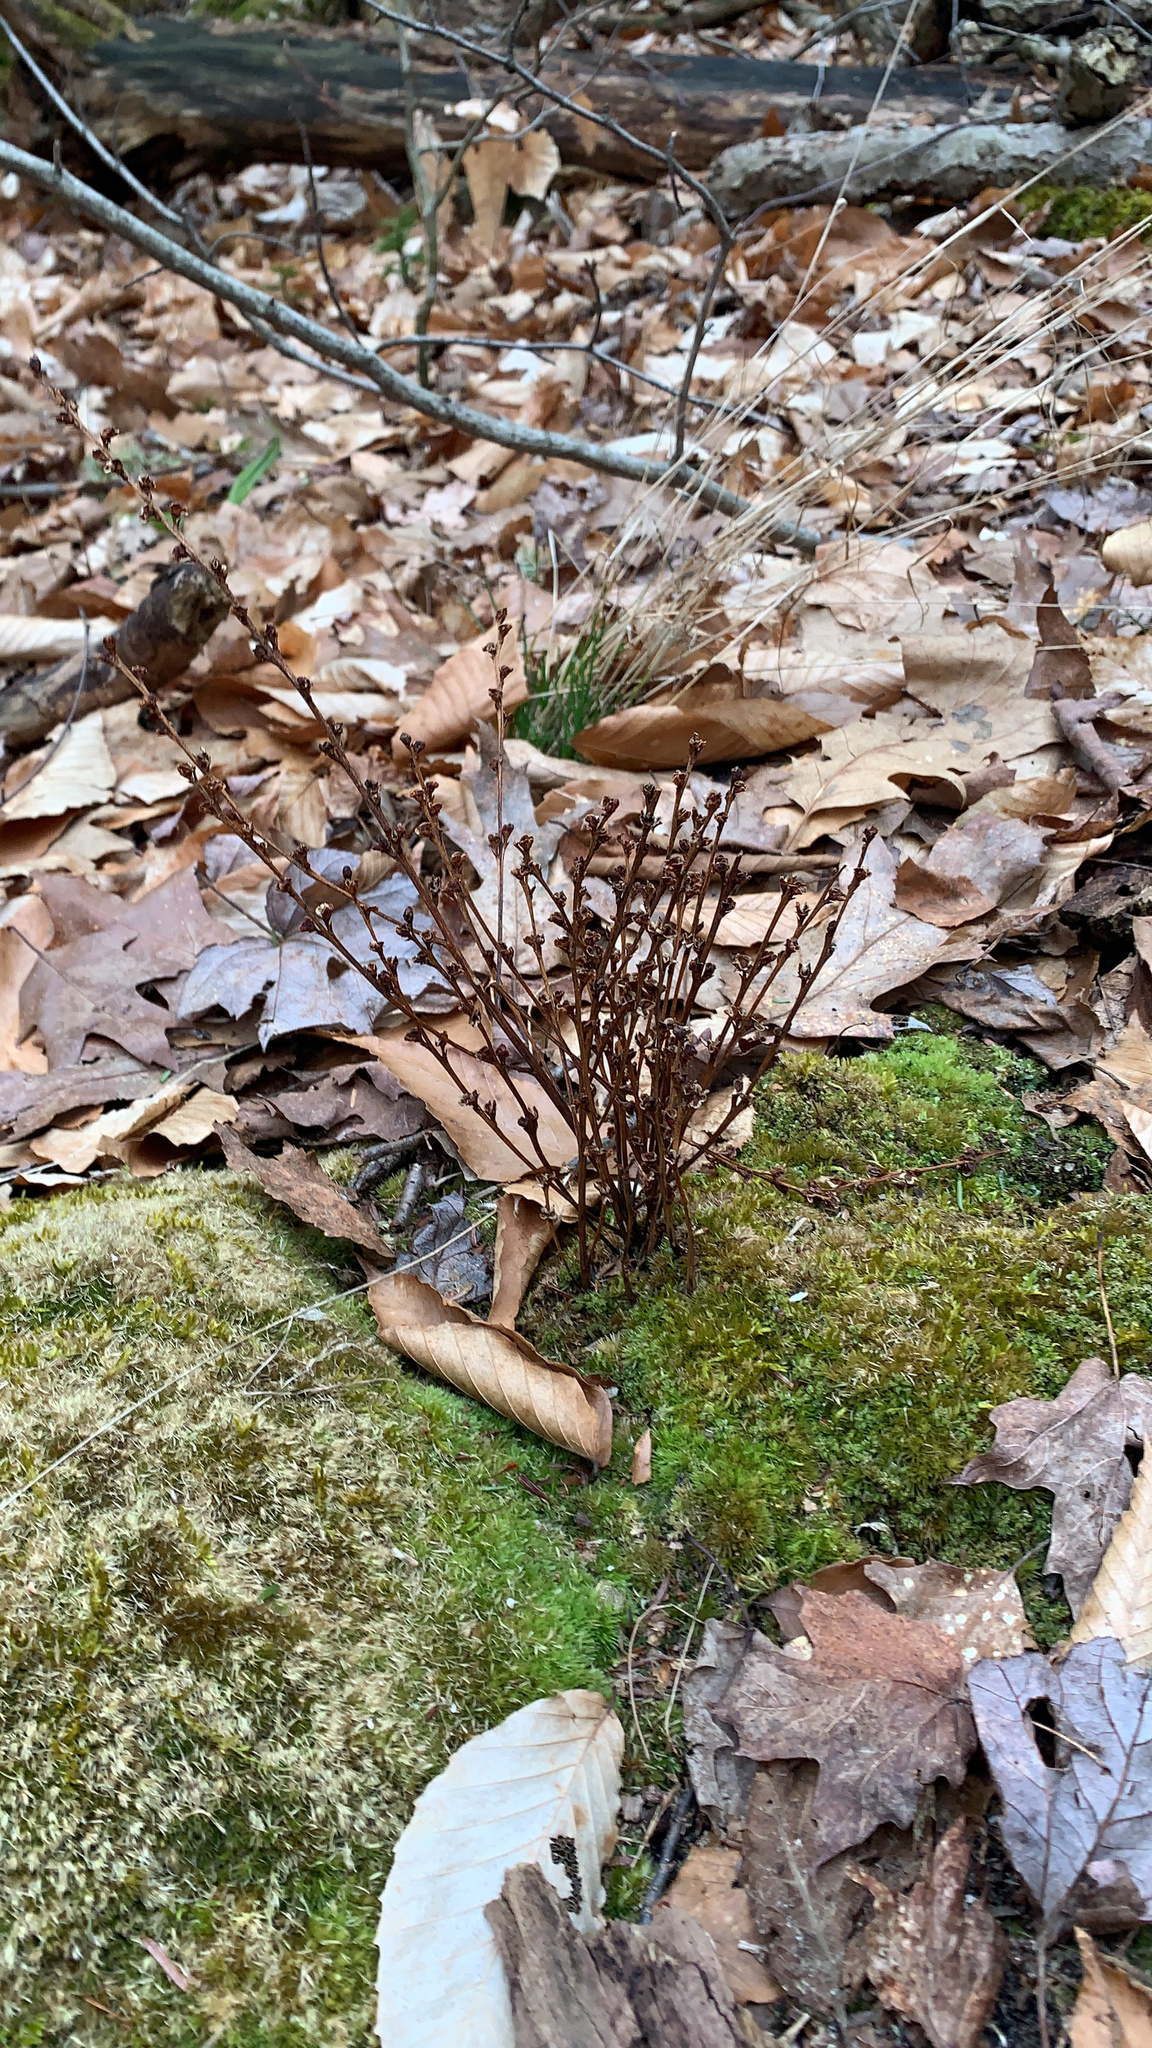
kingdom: Plantae
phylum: Tracheophyta
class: Magnoliopsida
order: Lamiales
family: Orobanchaceae
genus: Epifagus
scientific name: Epifagus virginiana
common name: Beechdrops
